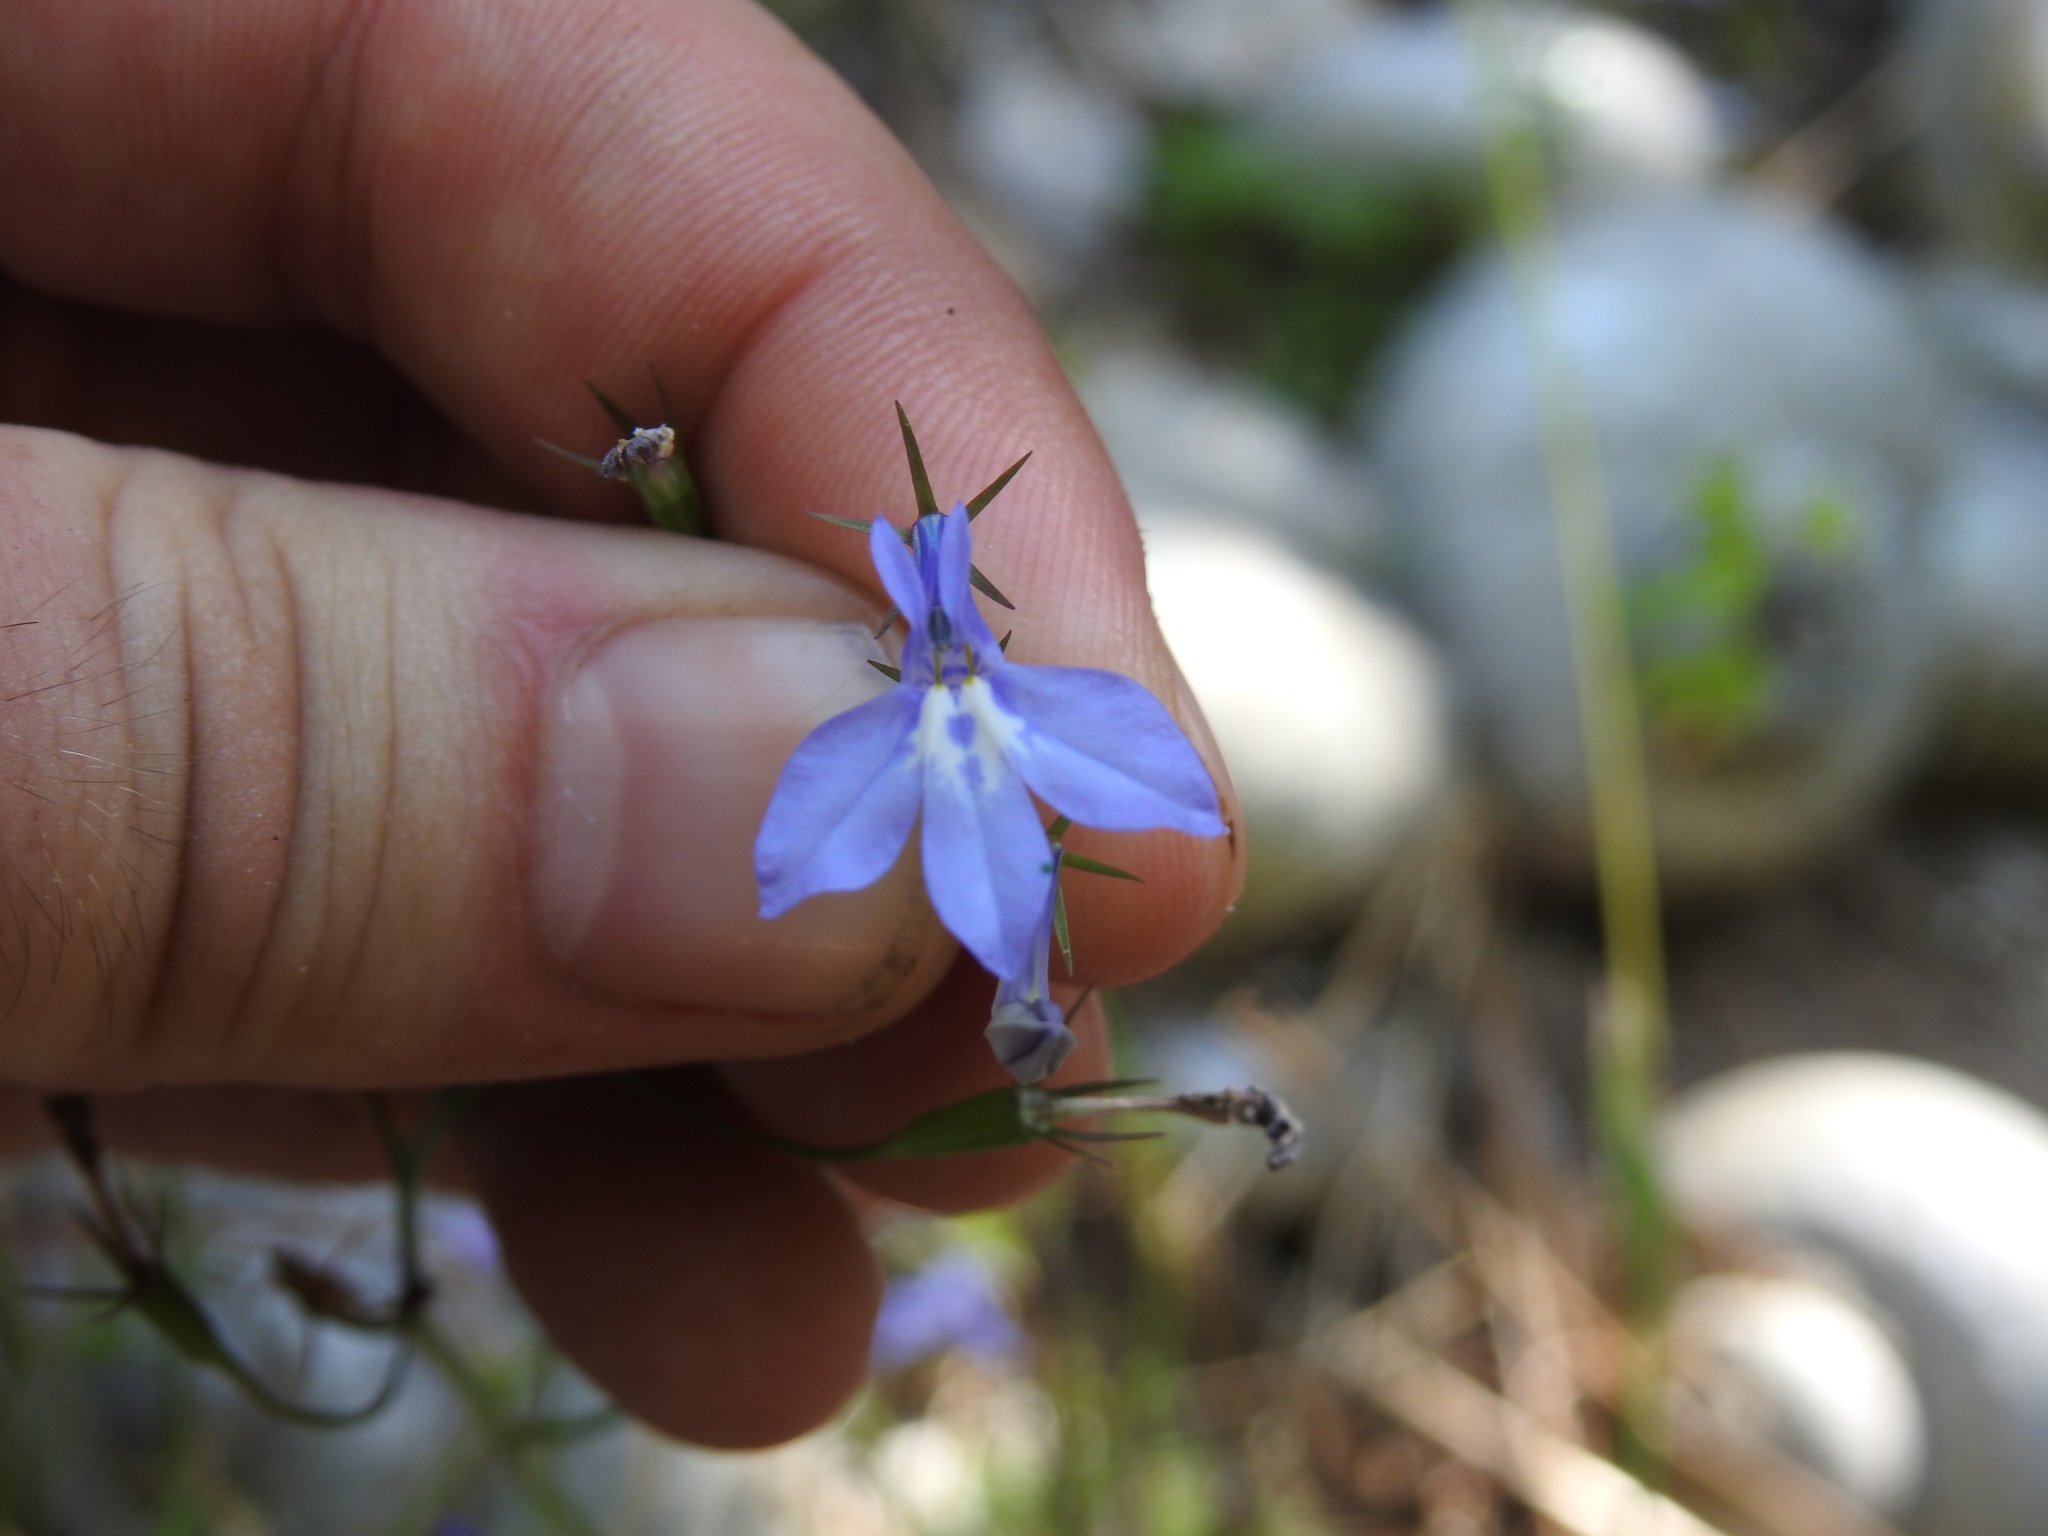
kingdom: Plantae
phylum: Tracheophyta
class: Magnoliopsida
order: Asterales
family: Campanulaceae
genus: Lobelia
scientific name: Lobelia erinus
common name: Edging lobelia
